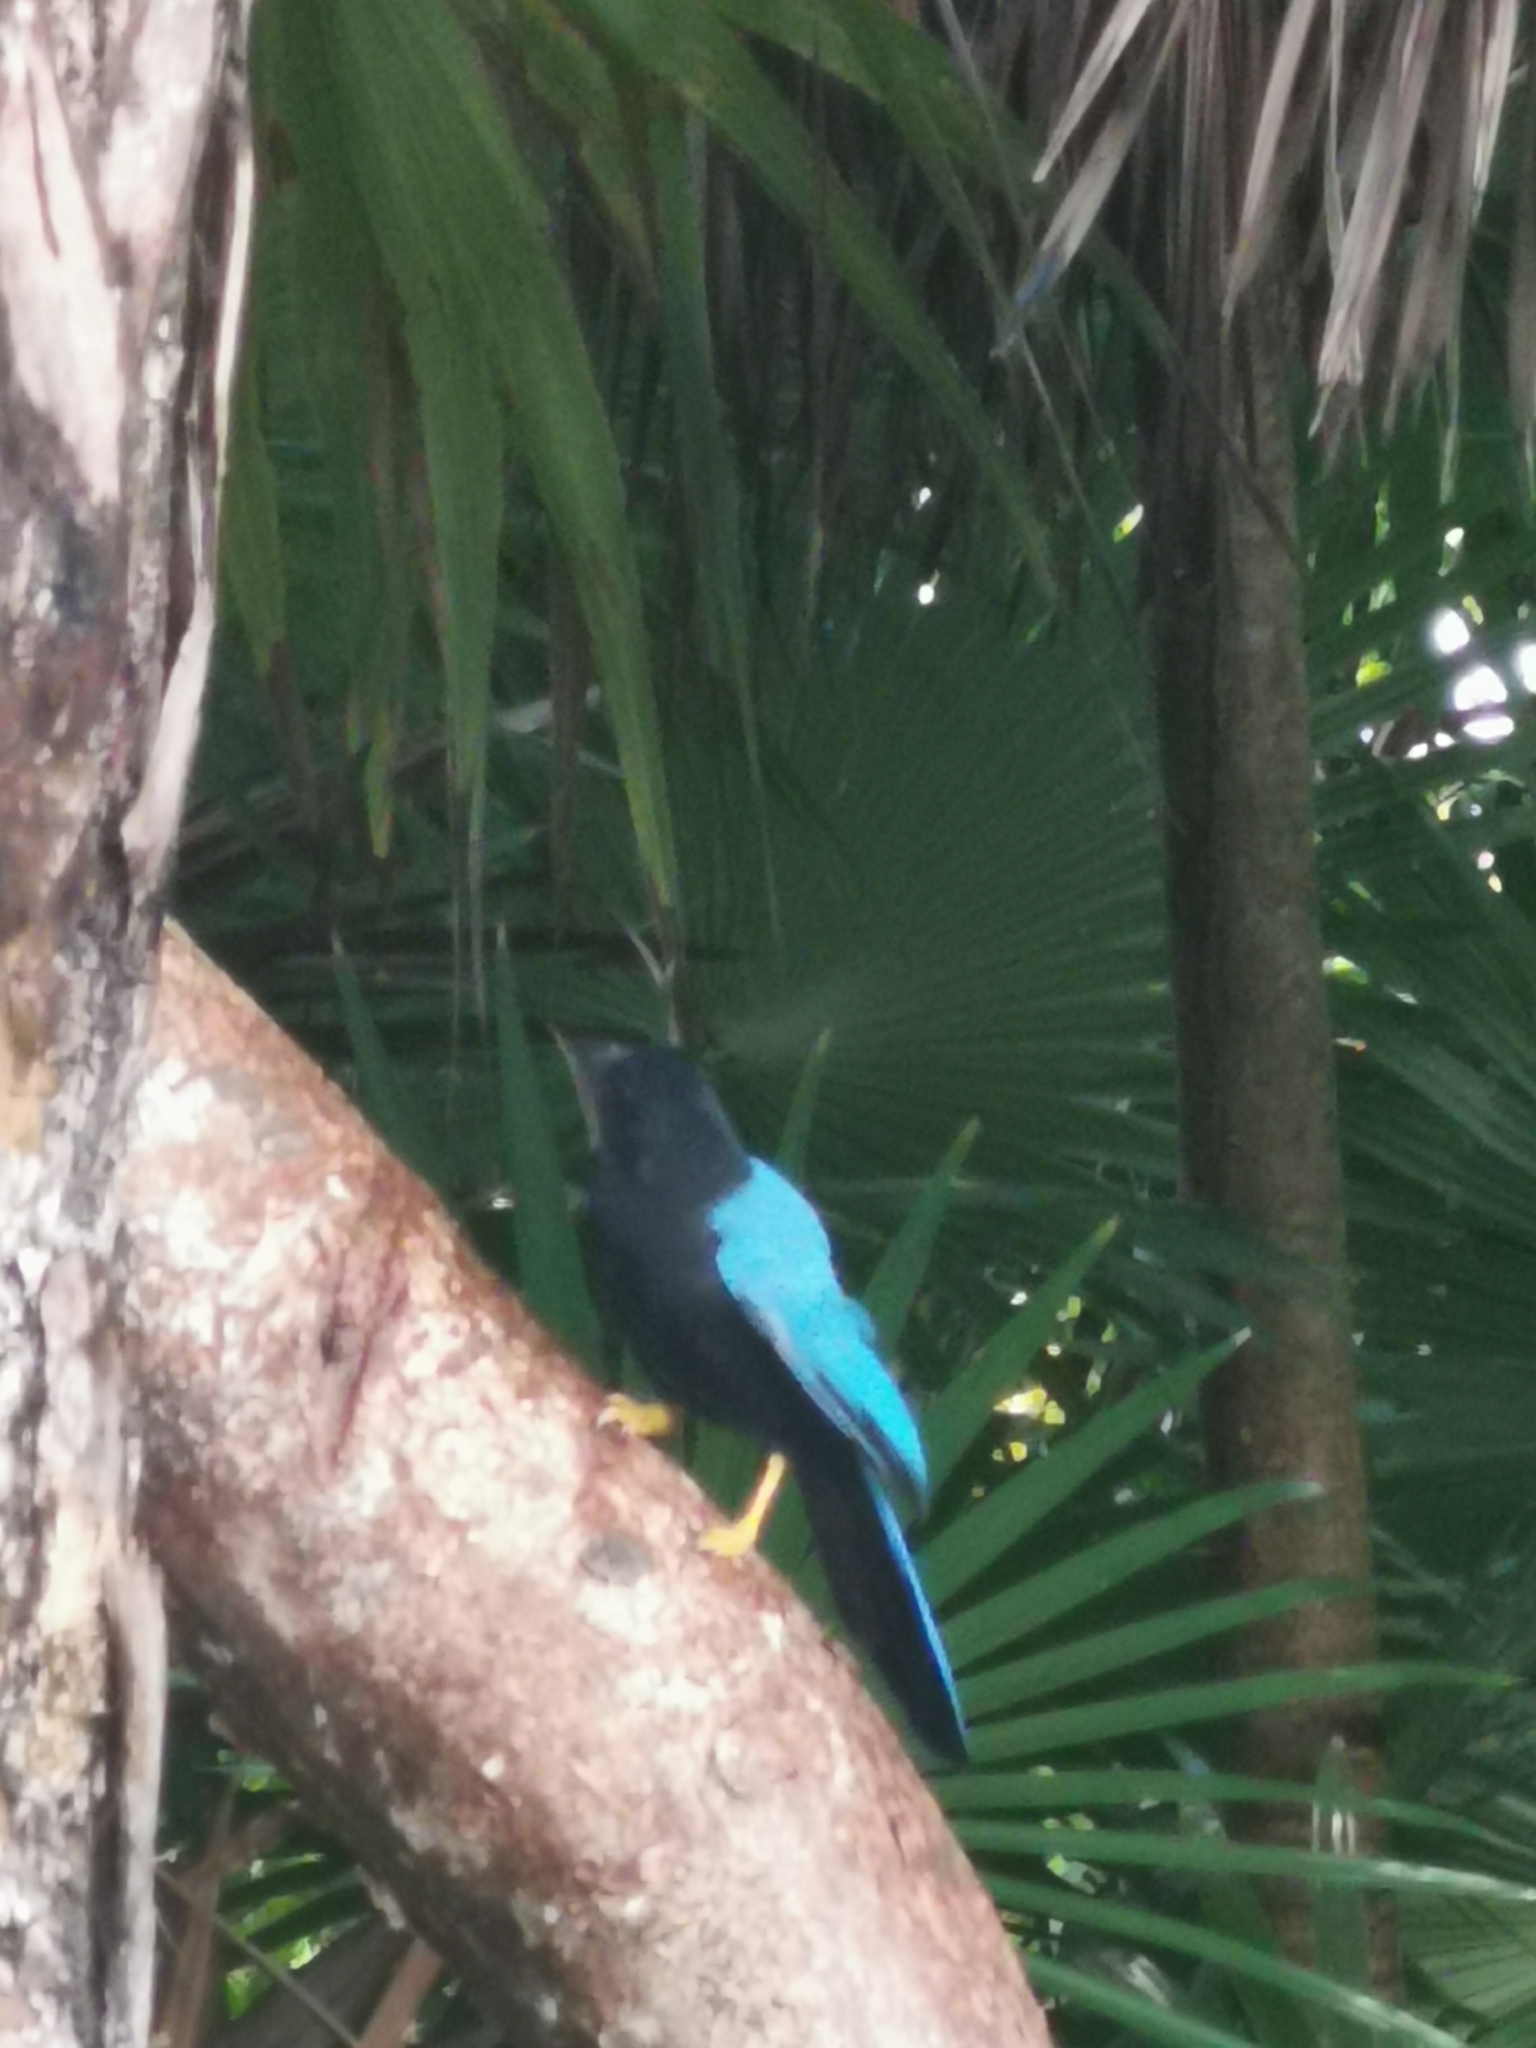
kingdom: Animalia
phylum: Chordata
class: Aves
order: Passeriformes
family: Corvidae
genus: Cyanocorax
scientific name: Cyanocorax yucatanicus
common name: Yucatan jay
